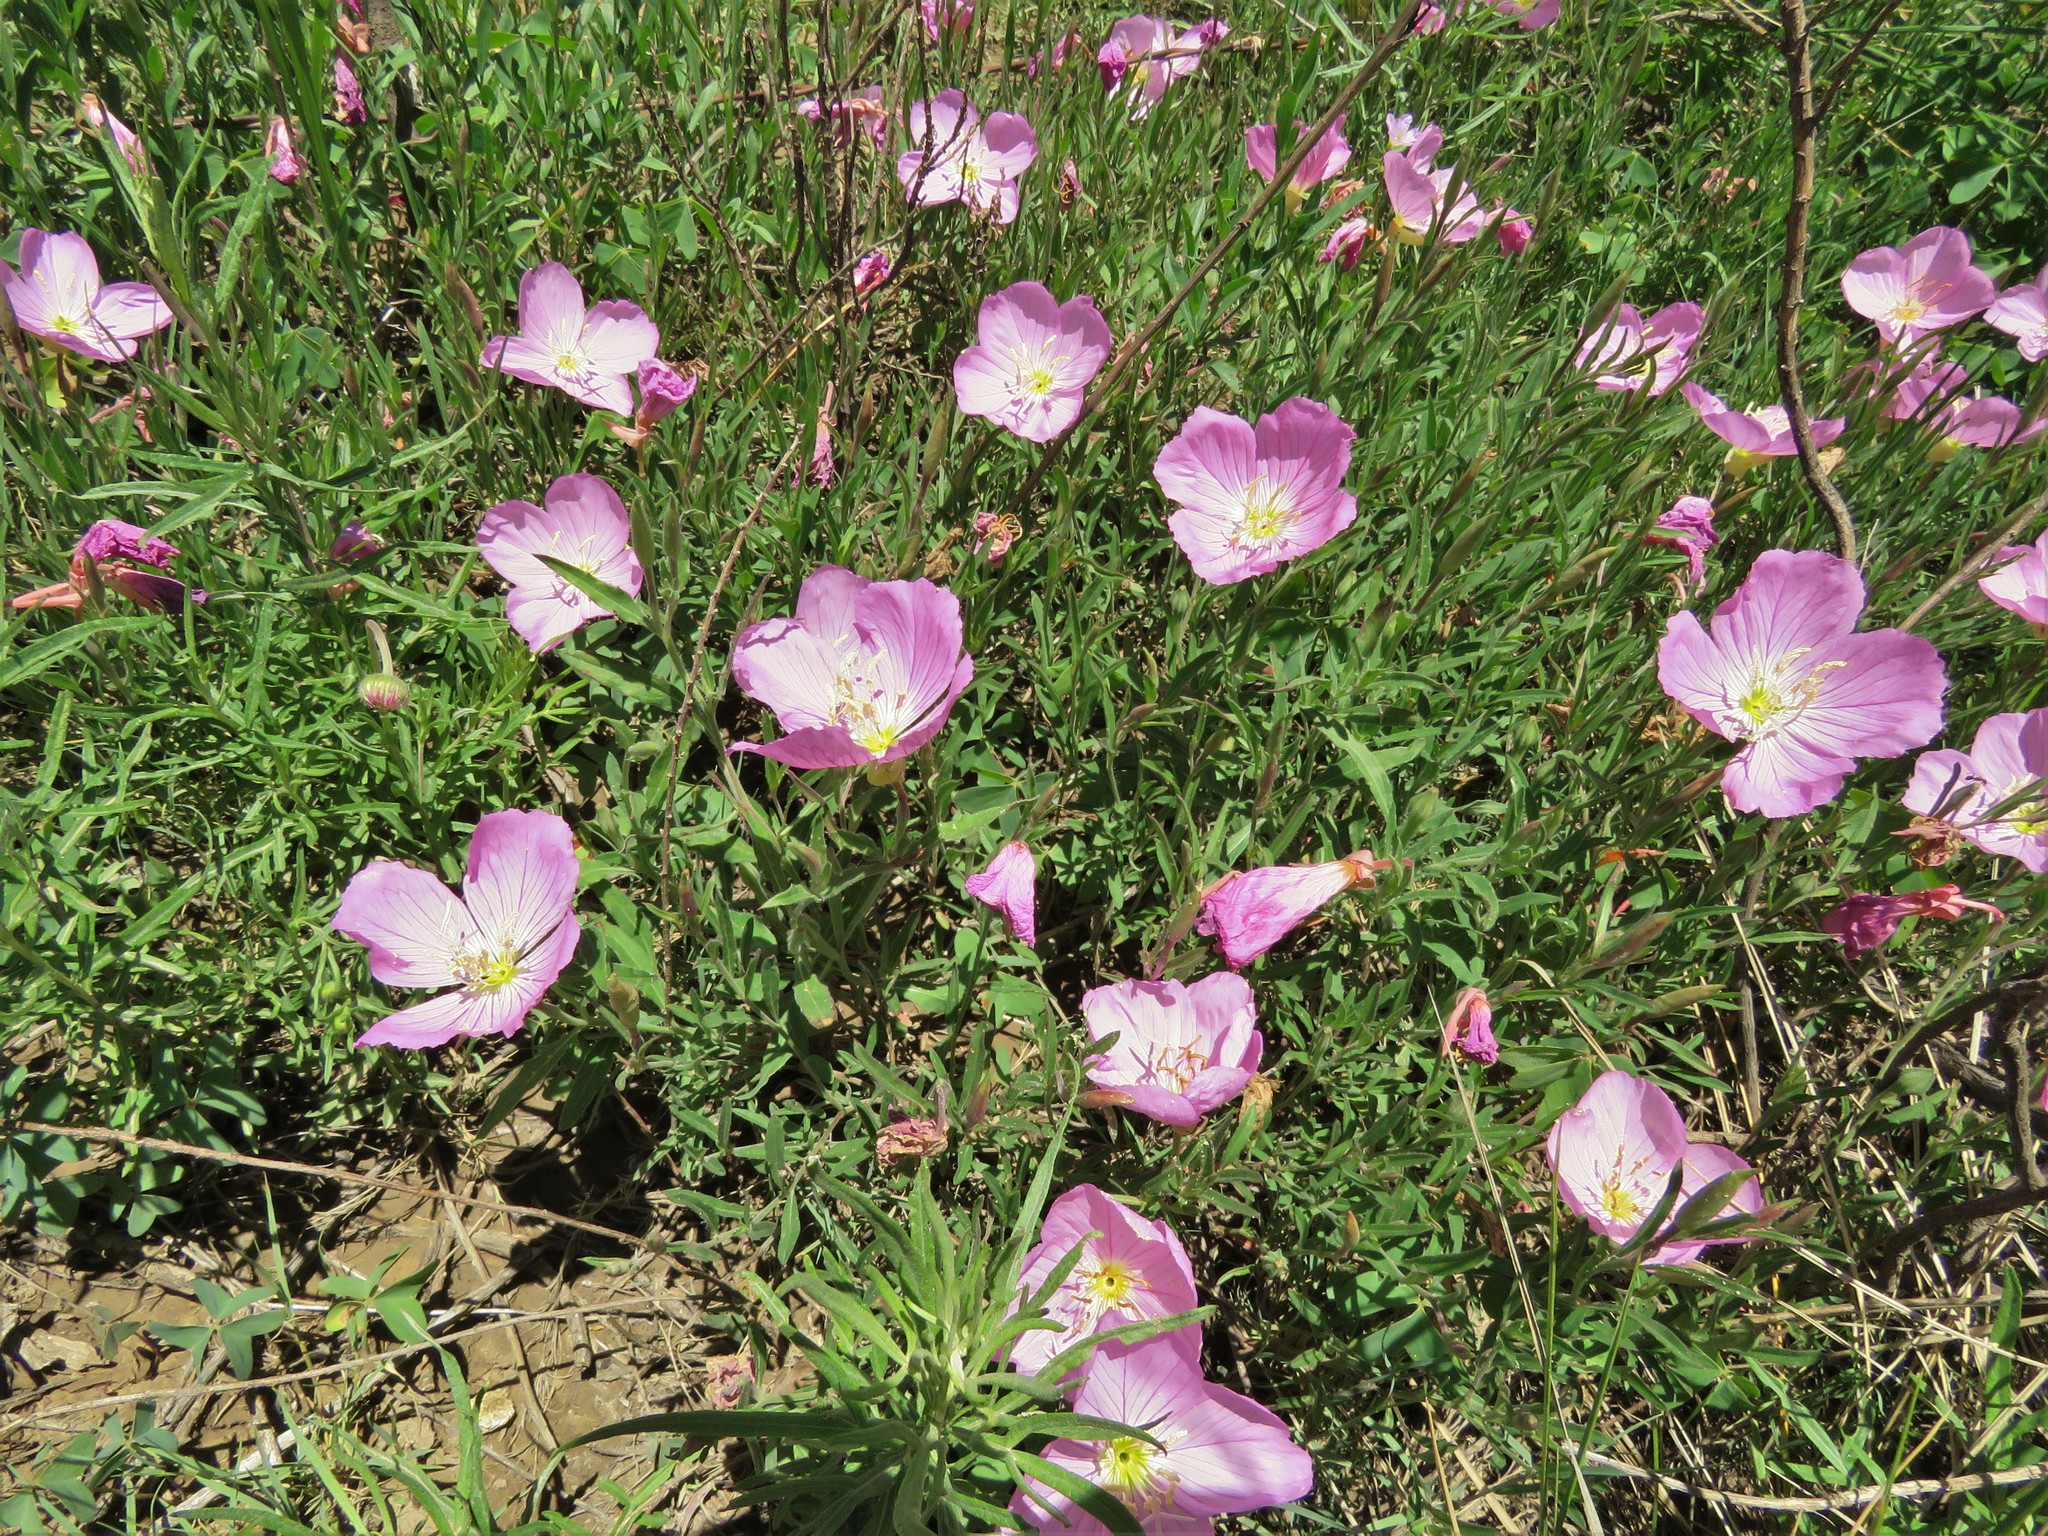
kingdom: Plantae
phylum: Tracheophyta
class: Magnoliopsida
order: Myrtales
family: Onagraceae
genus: Oenothera
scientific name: Oenothera speciosa
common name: White evening-primrose
